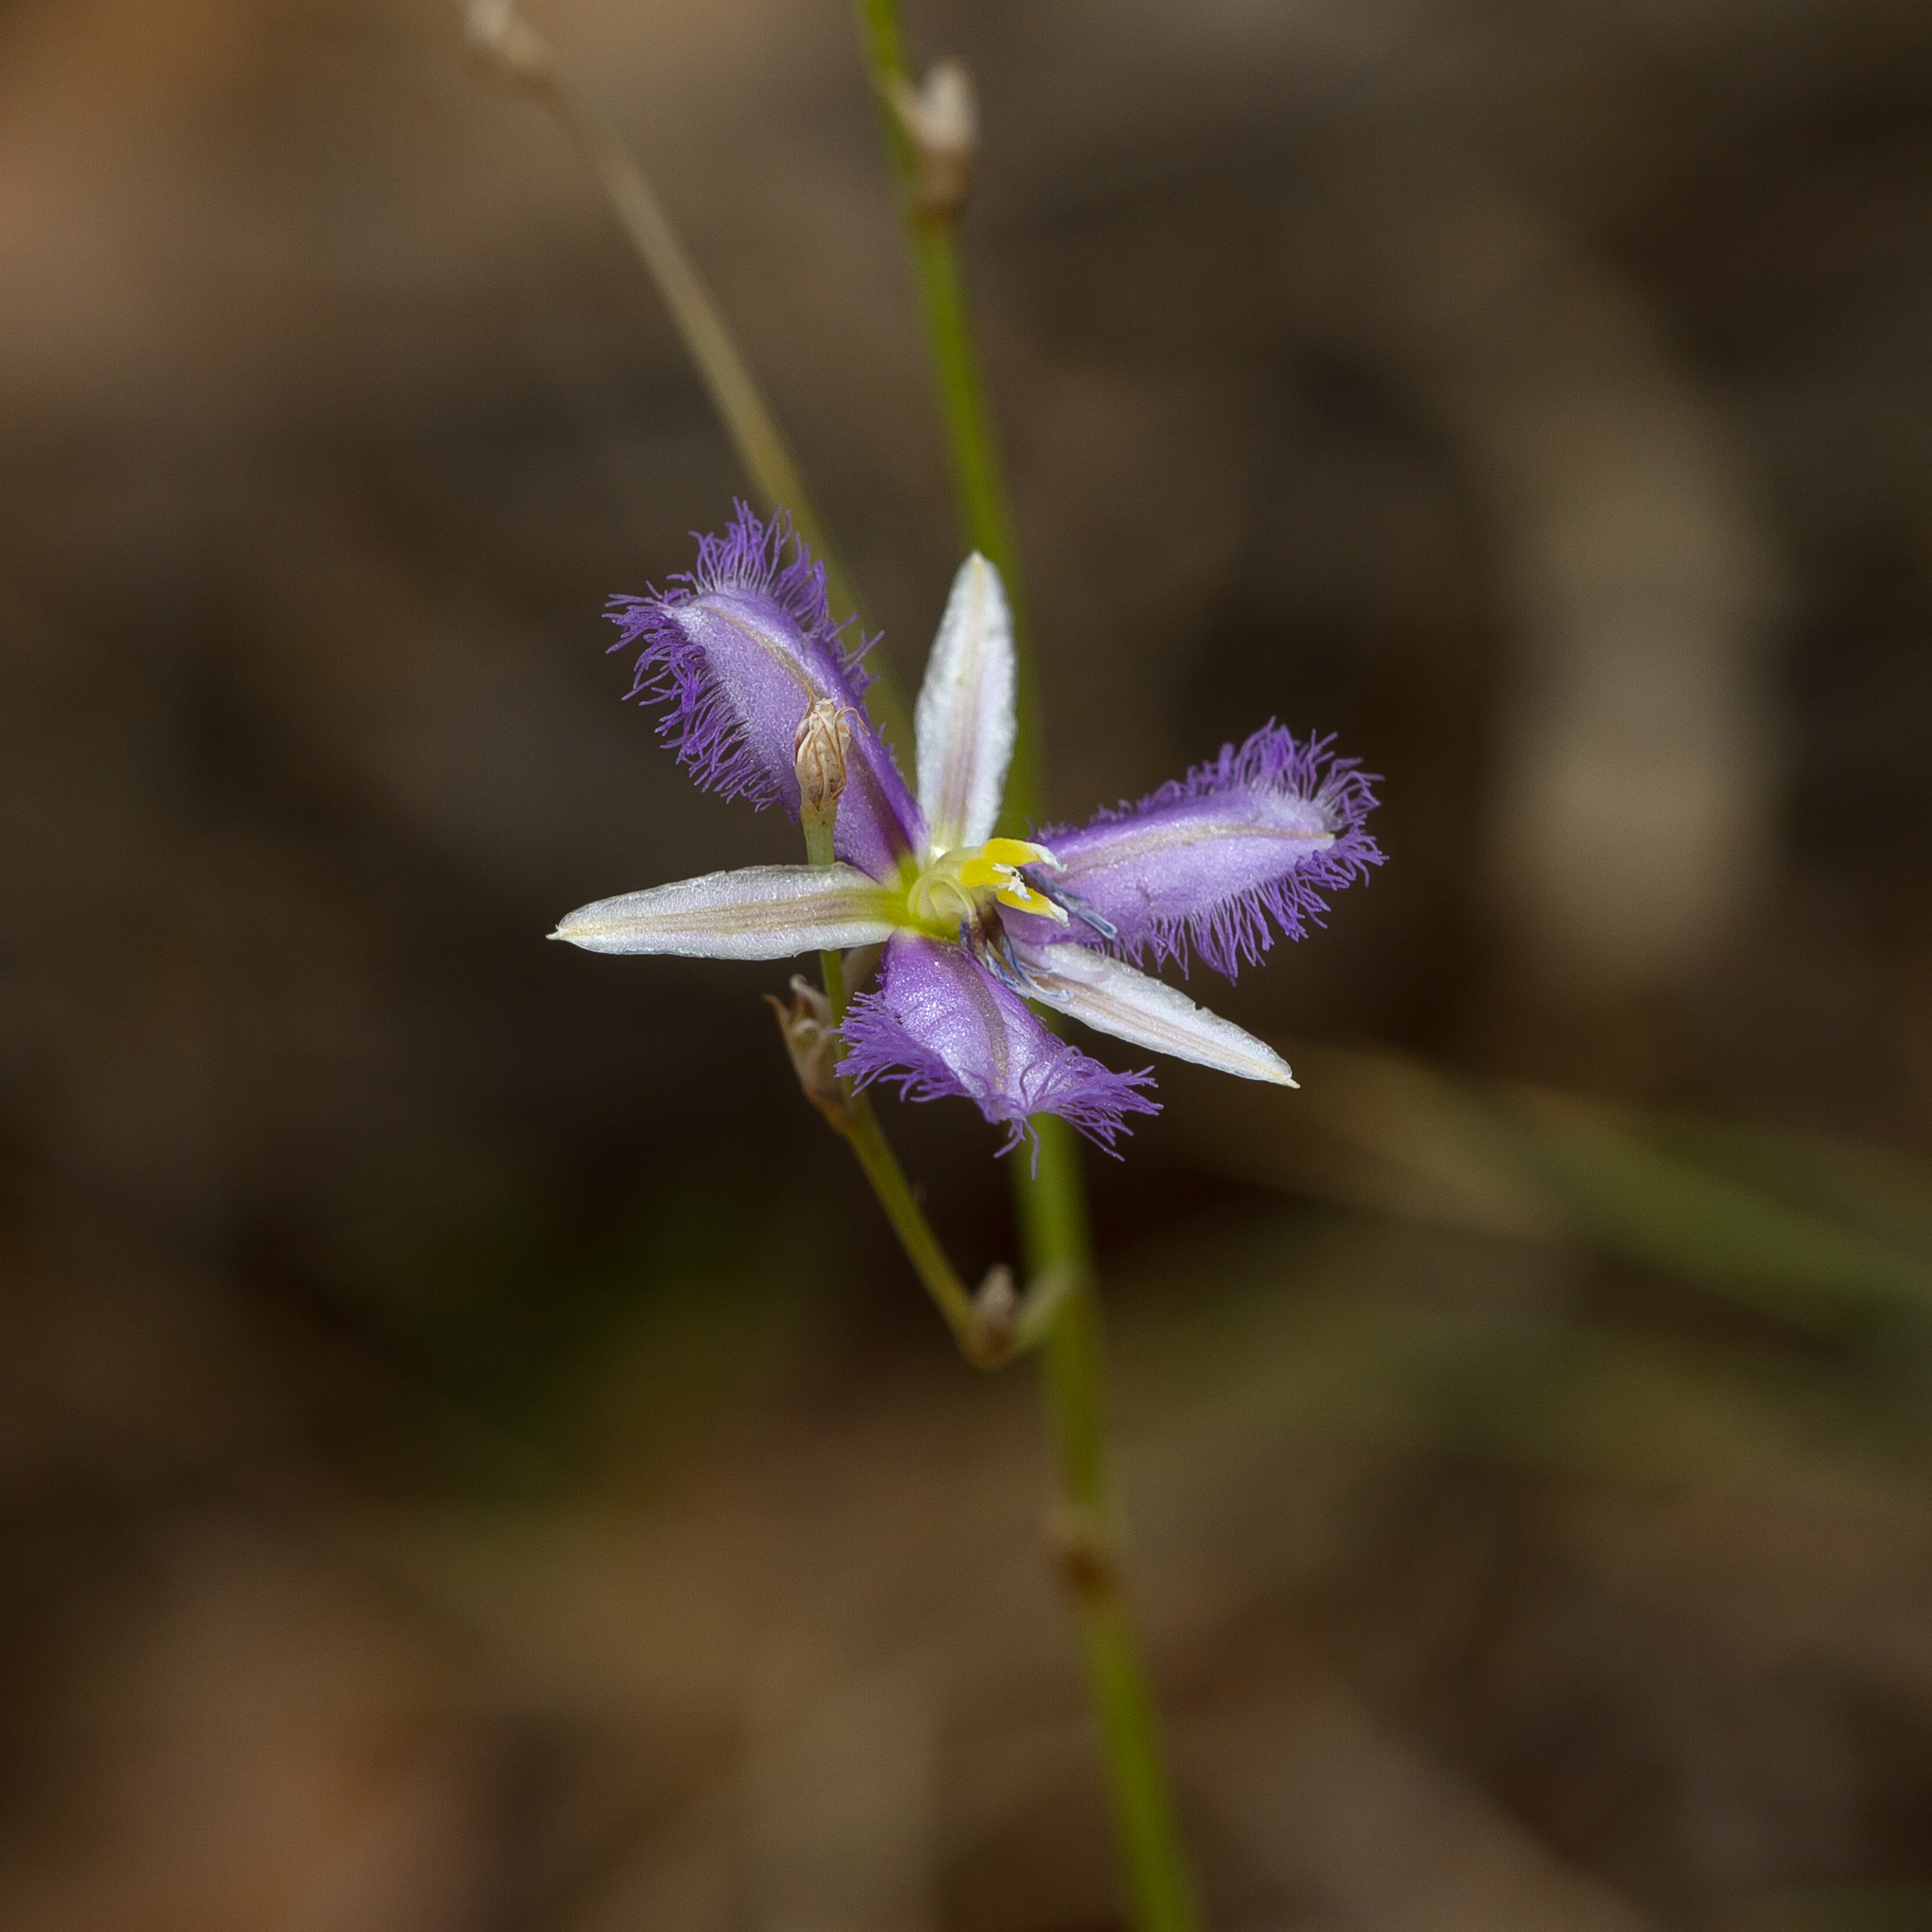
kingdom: Plantae
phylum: Tracheophyta
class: Liliopsida
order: Asparagales
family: Asparagaceae
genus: Thysanotus
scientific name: Thysanotus baueri
